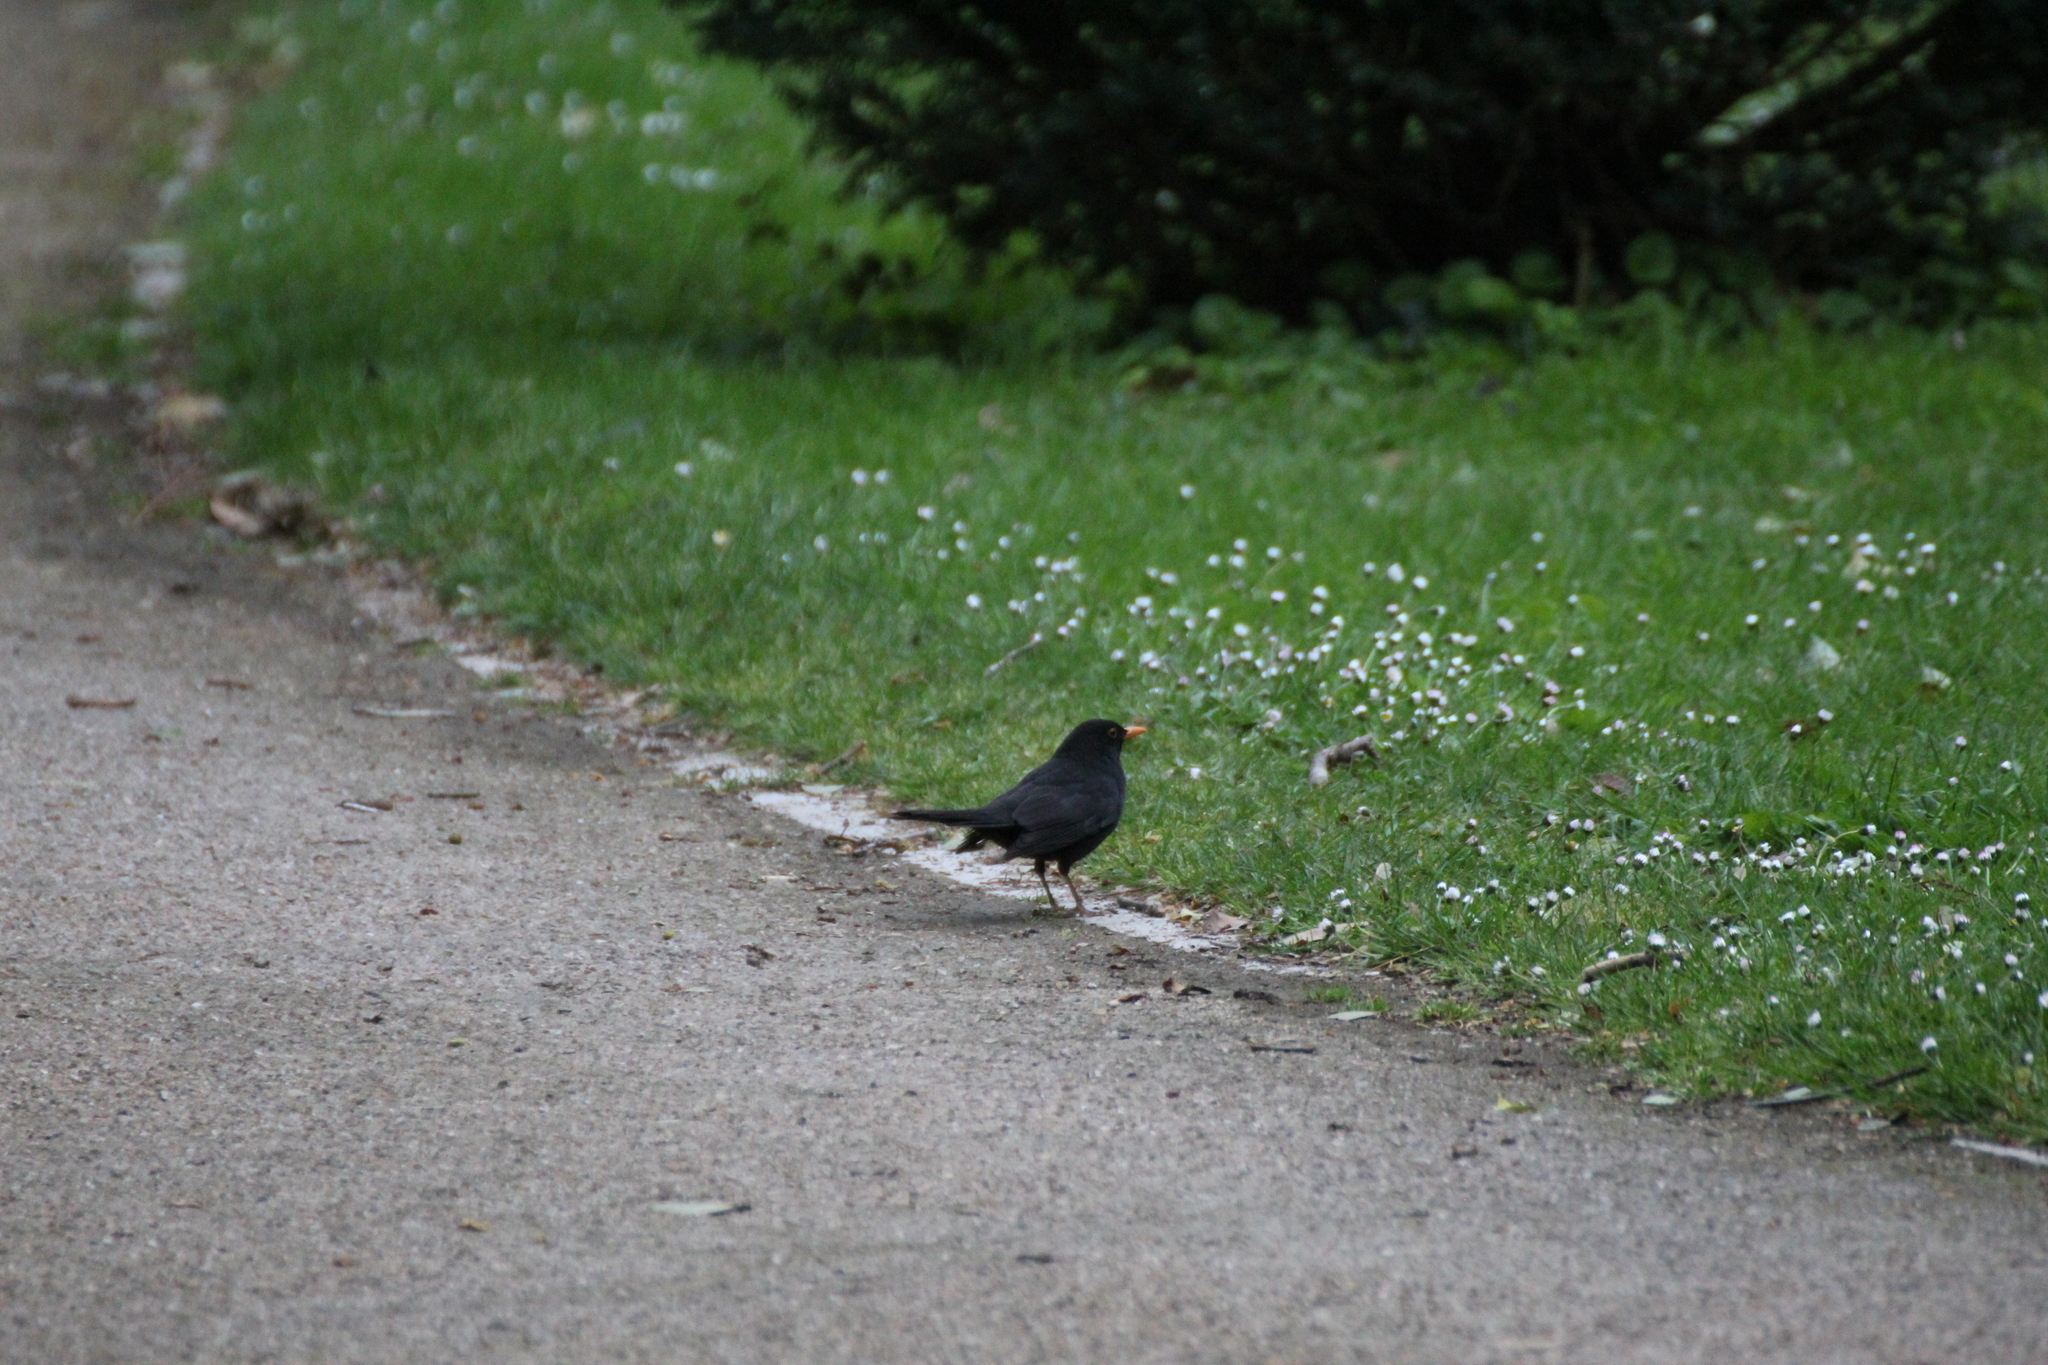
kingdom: Animalia
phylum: Chordata
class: Aves
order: Passeriformes
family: Turdidae
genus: Turdus
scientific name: Turdus merula
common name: Common blackbird
